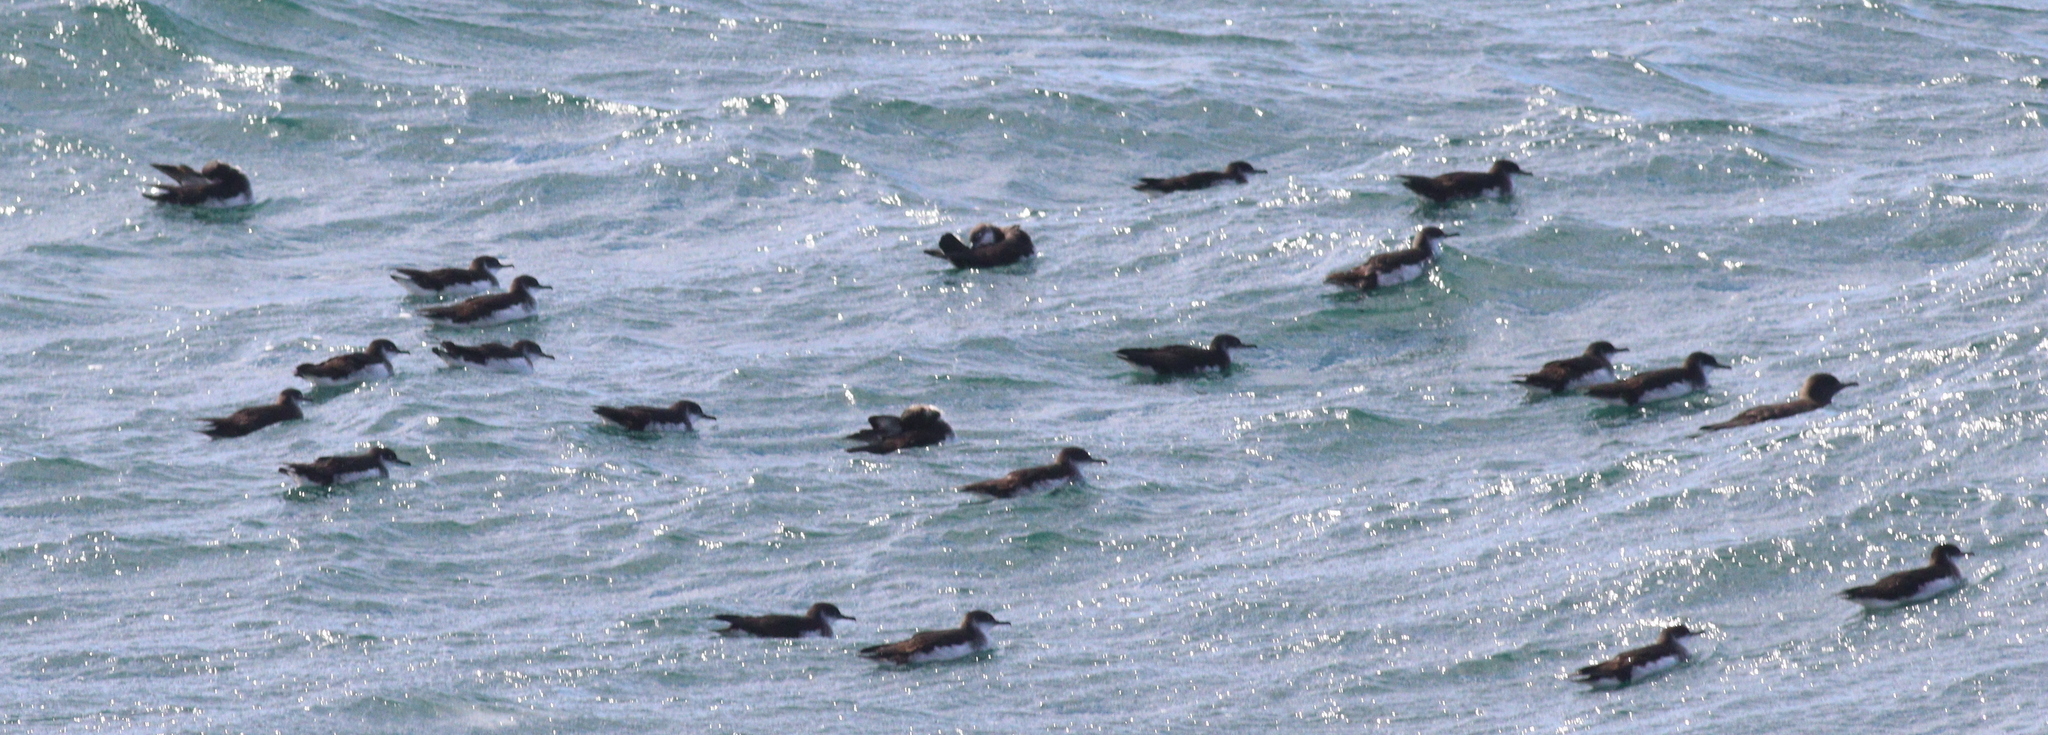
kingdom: Animalia
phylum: Chordata
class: Aves
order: Procellariiformes
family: Procellariidae
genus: Puffinus
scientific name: Puffinus puffinus
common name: Manx shearwater
